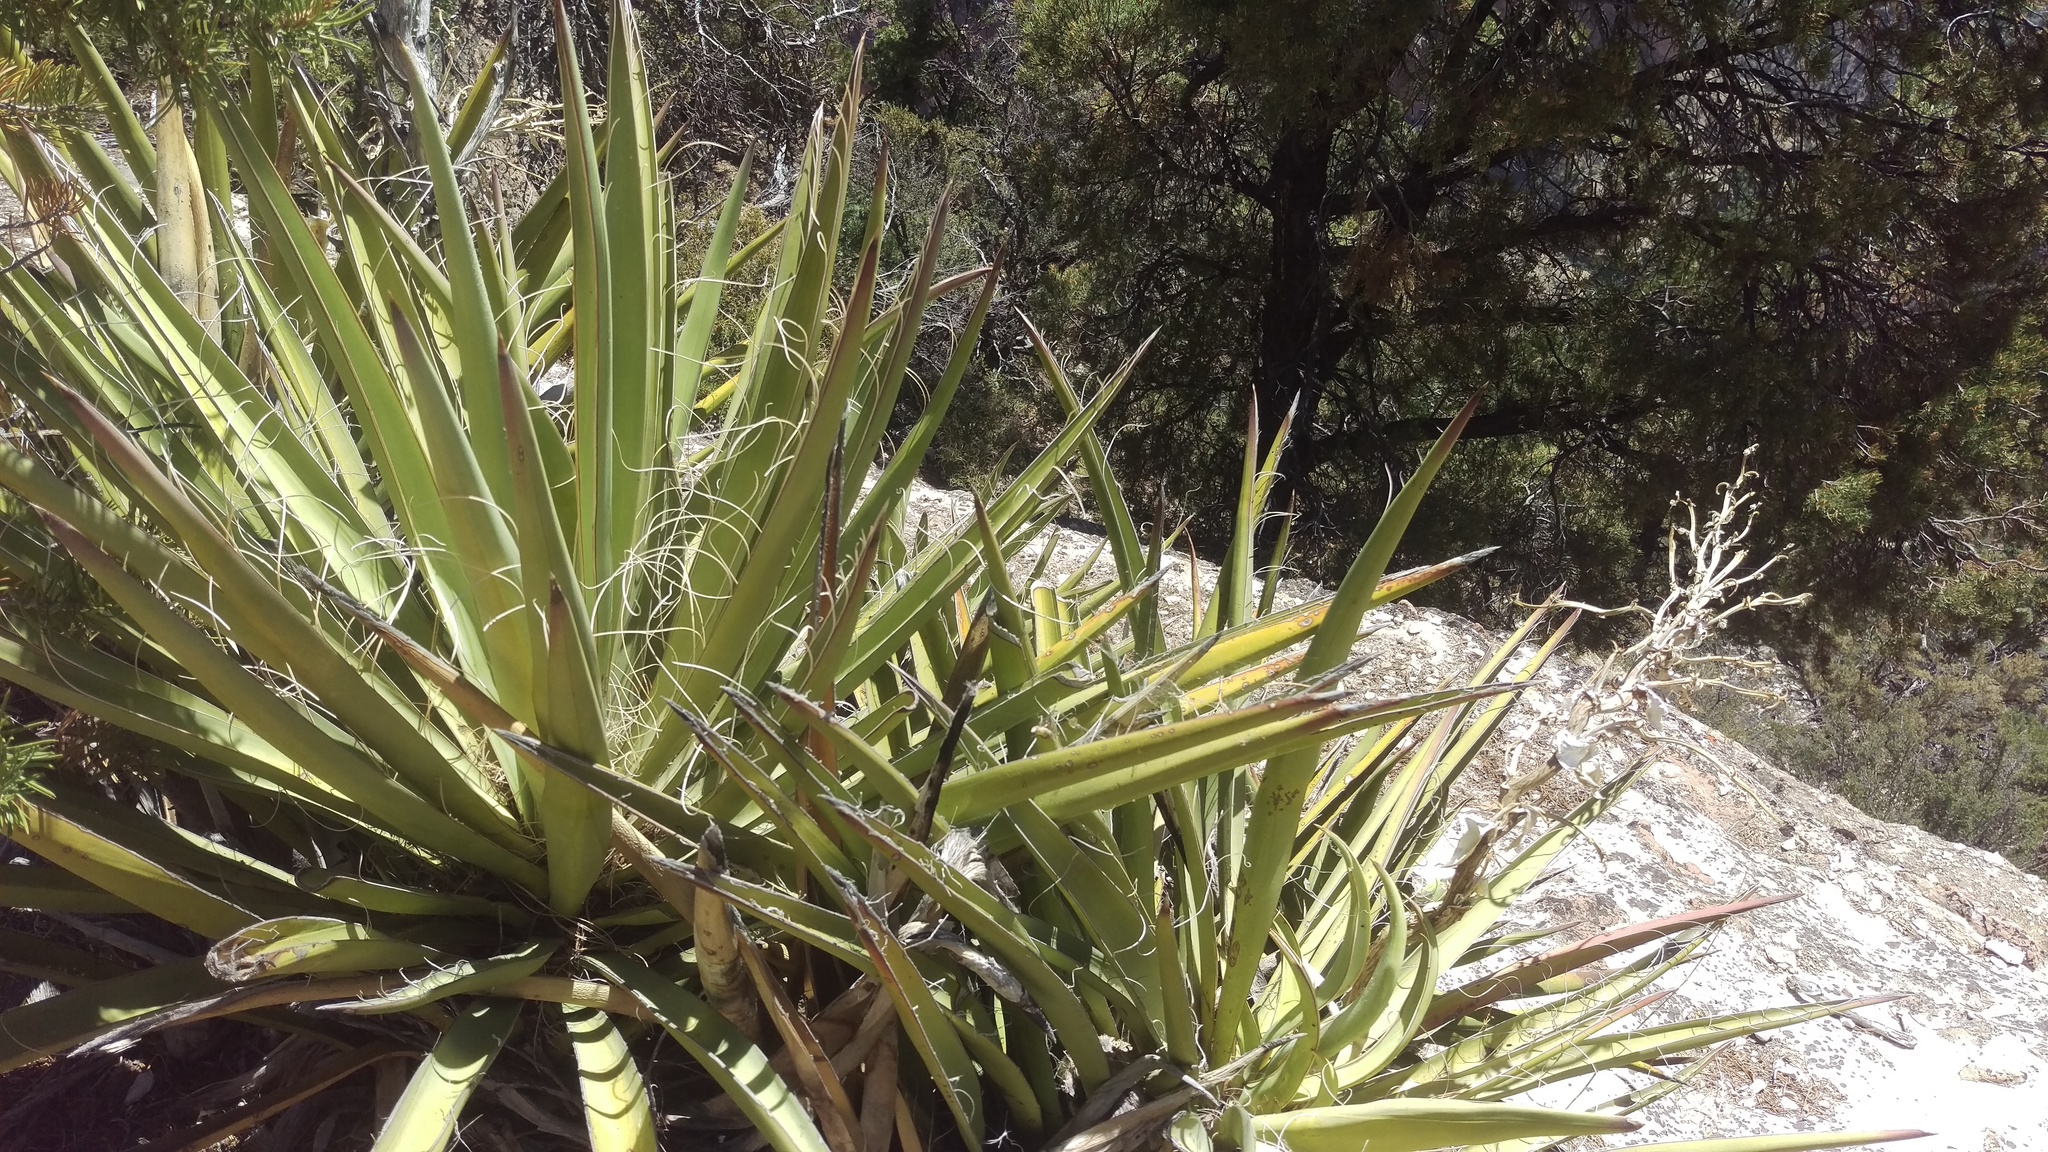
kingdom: Plantae
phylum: Tracheophyta
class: Liliopsida
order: Asparagales
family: Asparagaceae
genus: Yucca
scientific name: Yucca baccata
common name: Banana yucca
